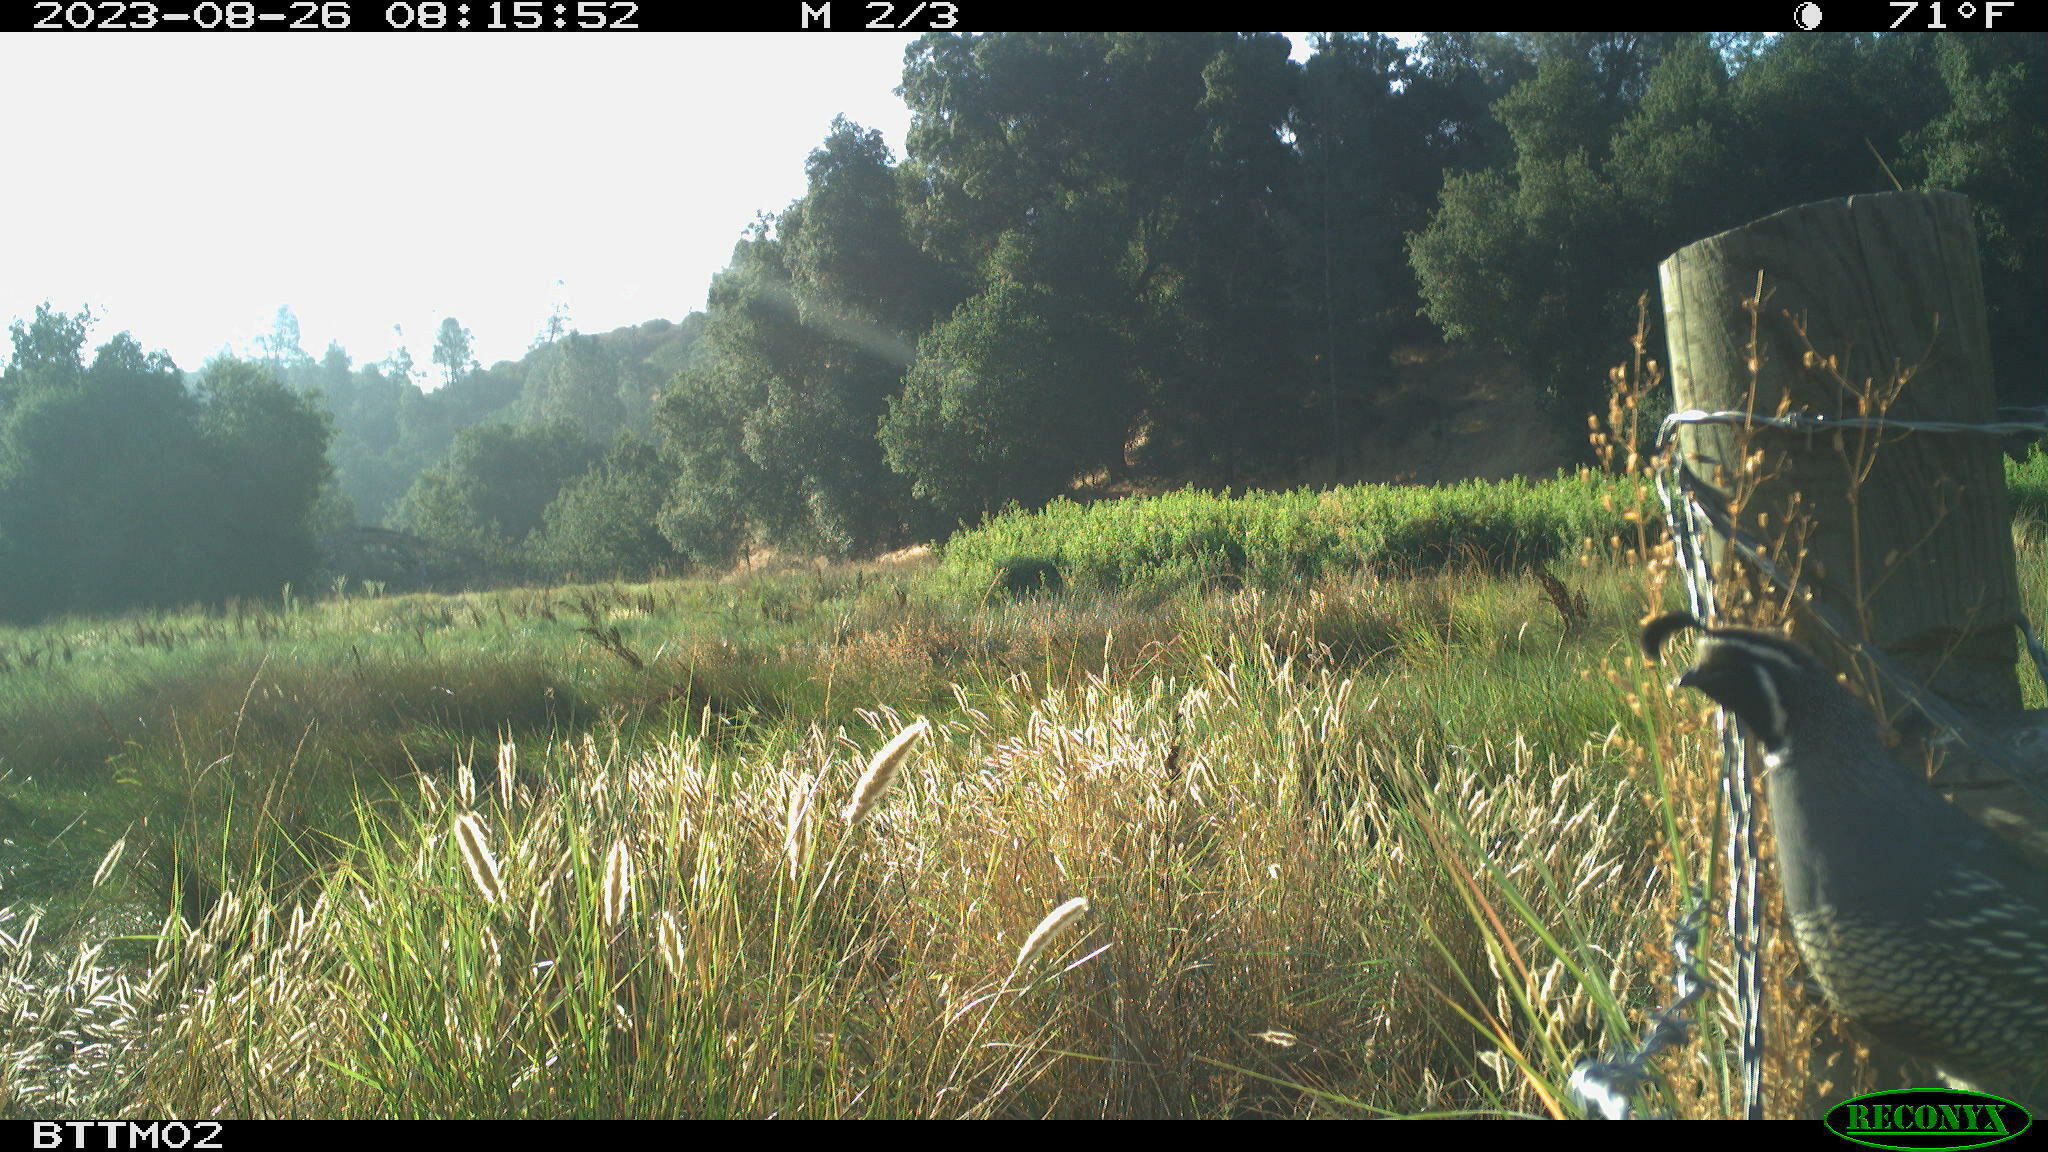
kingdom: Animalia
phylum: Chordata
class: Aves
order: Galliformes
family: Odontophoridae
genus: Callipepla
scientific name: Callipepla californica
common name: California quail
